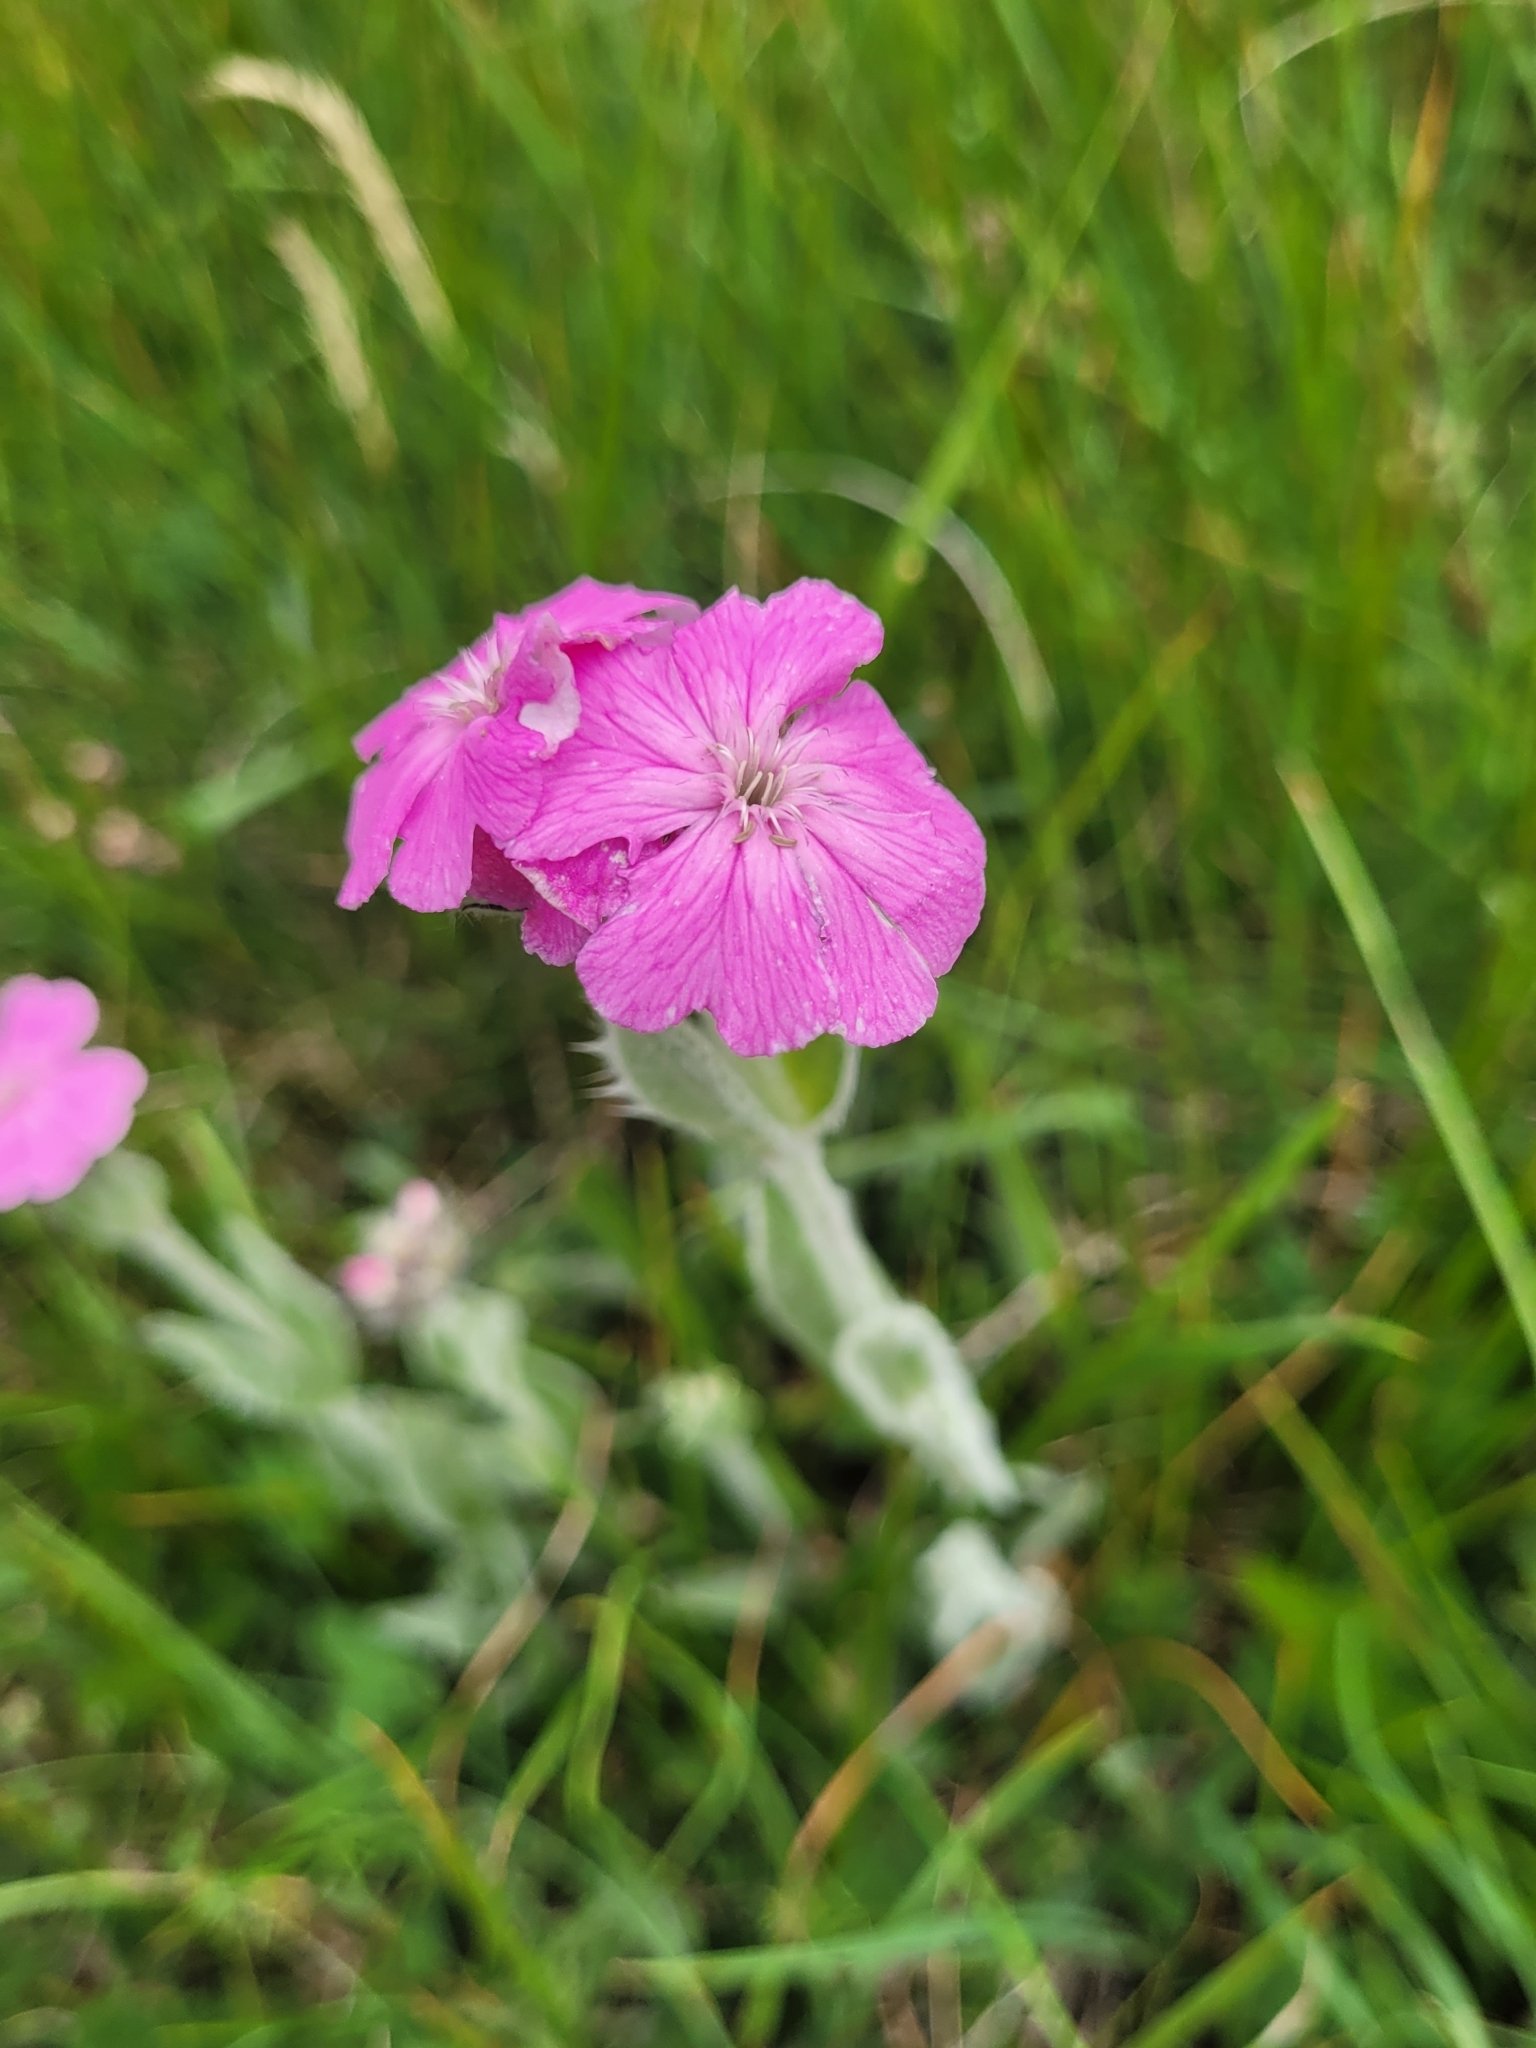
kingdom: Plantae
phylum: Tracheophyta
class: Magnoliopsida
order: Caryophyllales
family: Caryophyllaceae
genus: Silene
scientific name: Silene flos-jovis
